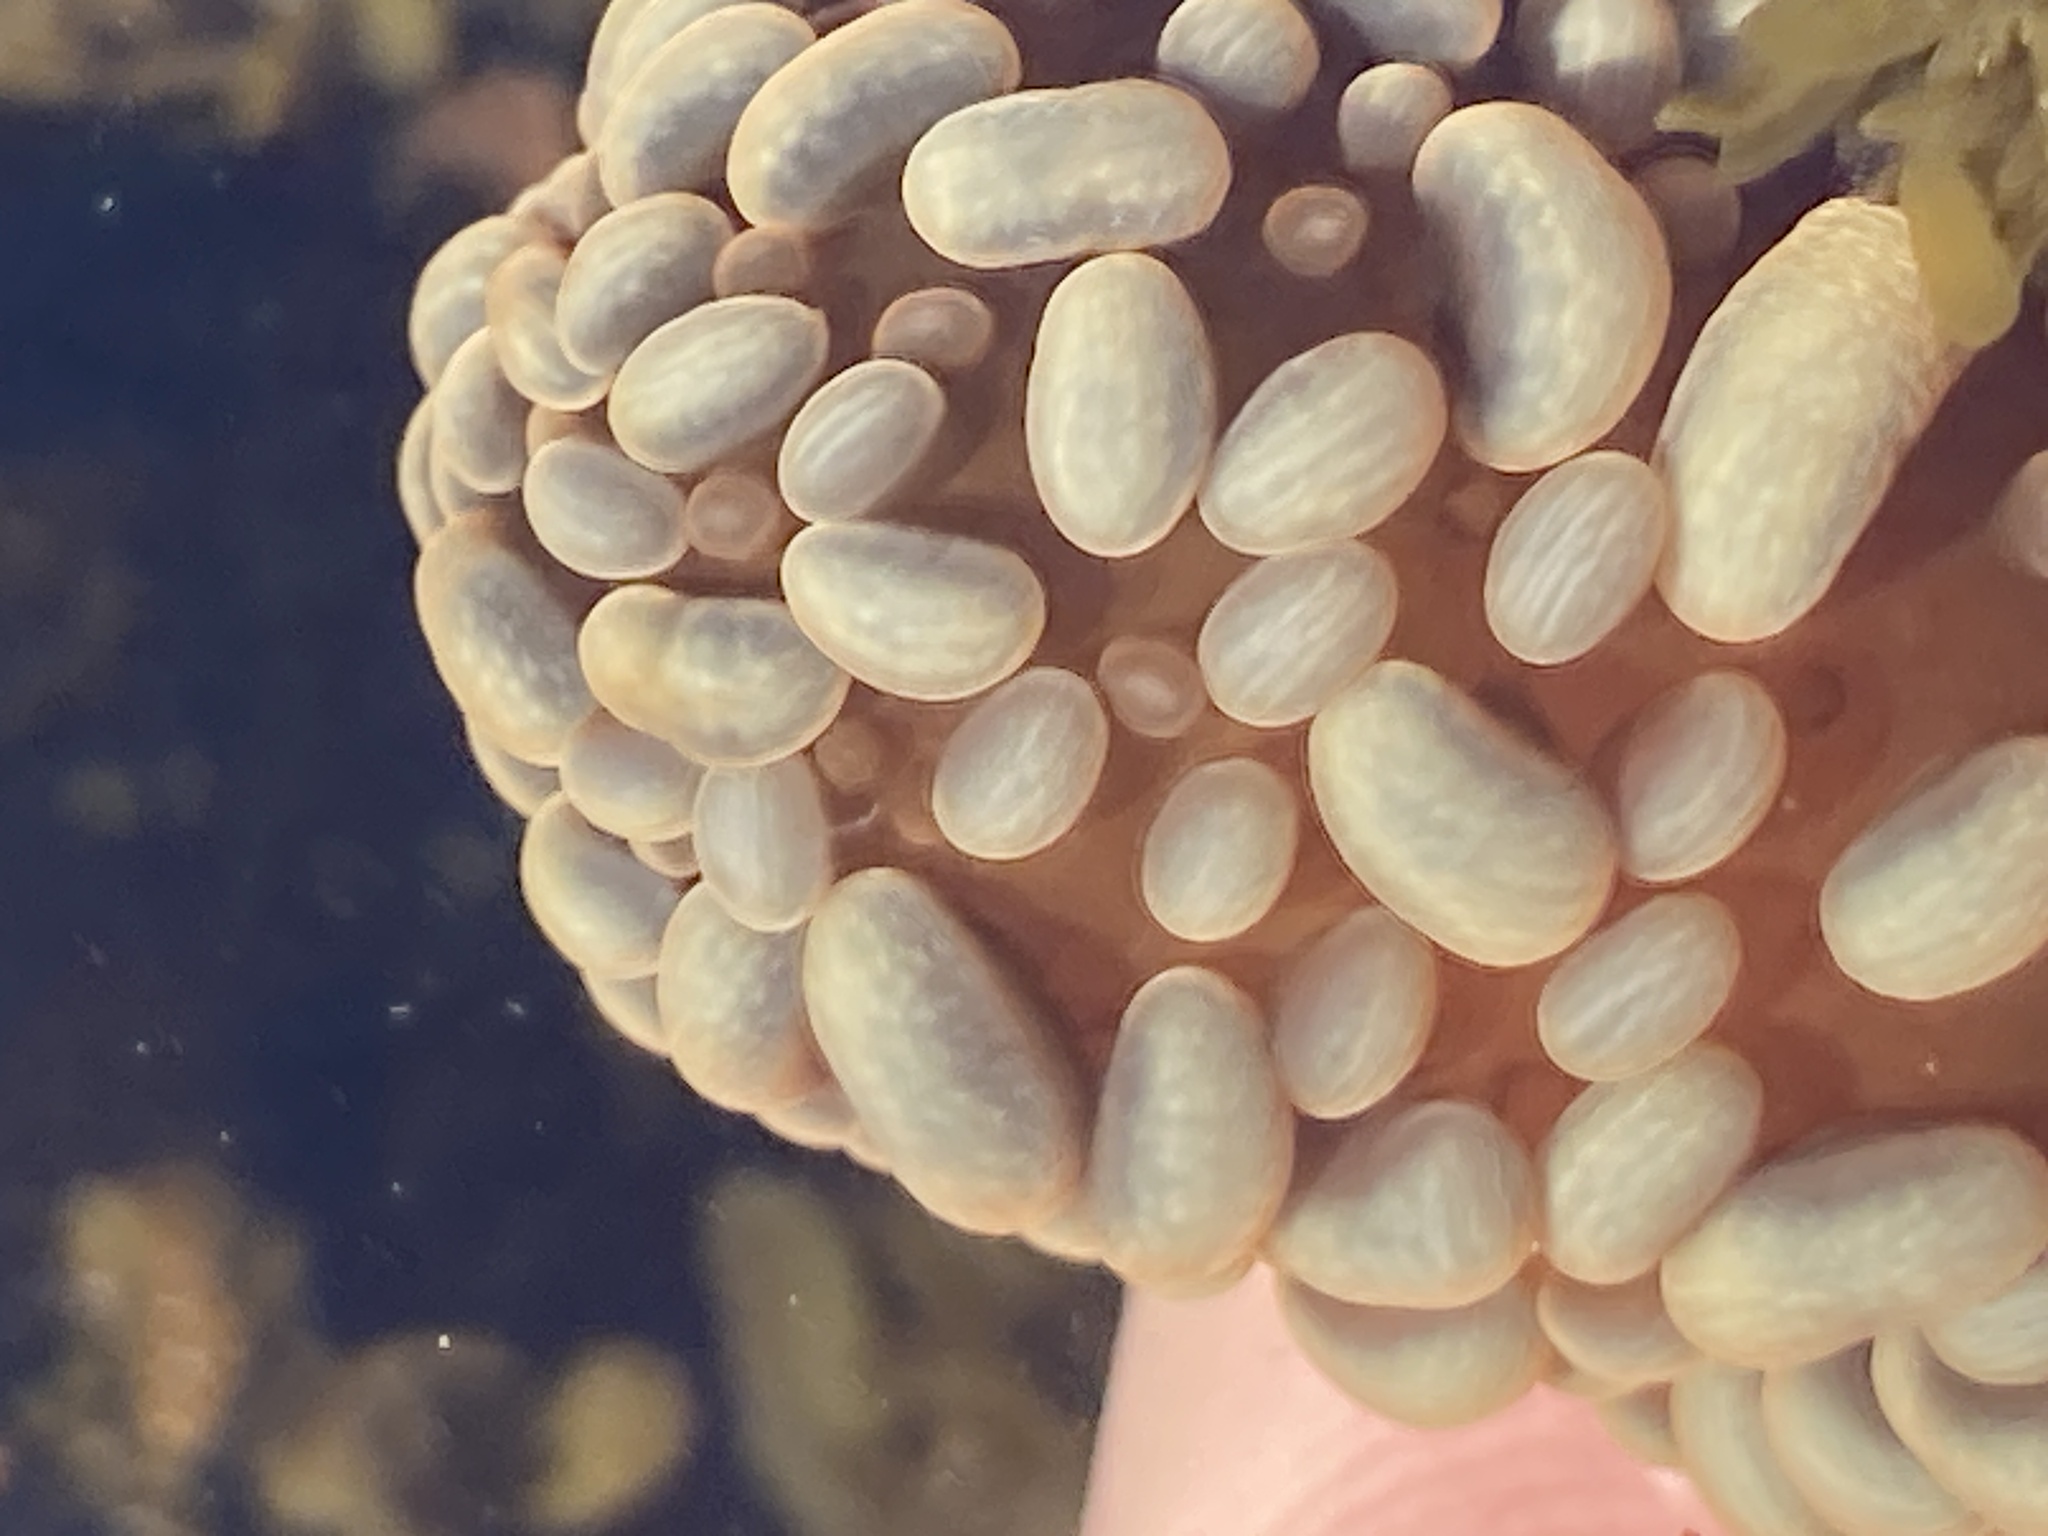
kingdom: Animalia
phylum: Cnidaria
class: Anthozoa
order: Actiniaria
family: Actiniidae
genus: Phlyctenactis
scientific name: Phlyctenactis tuberculosa
